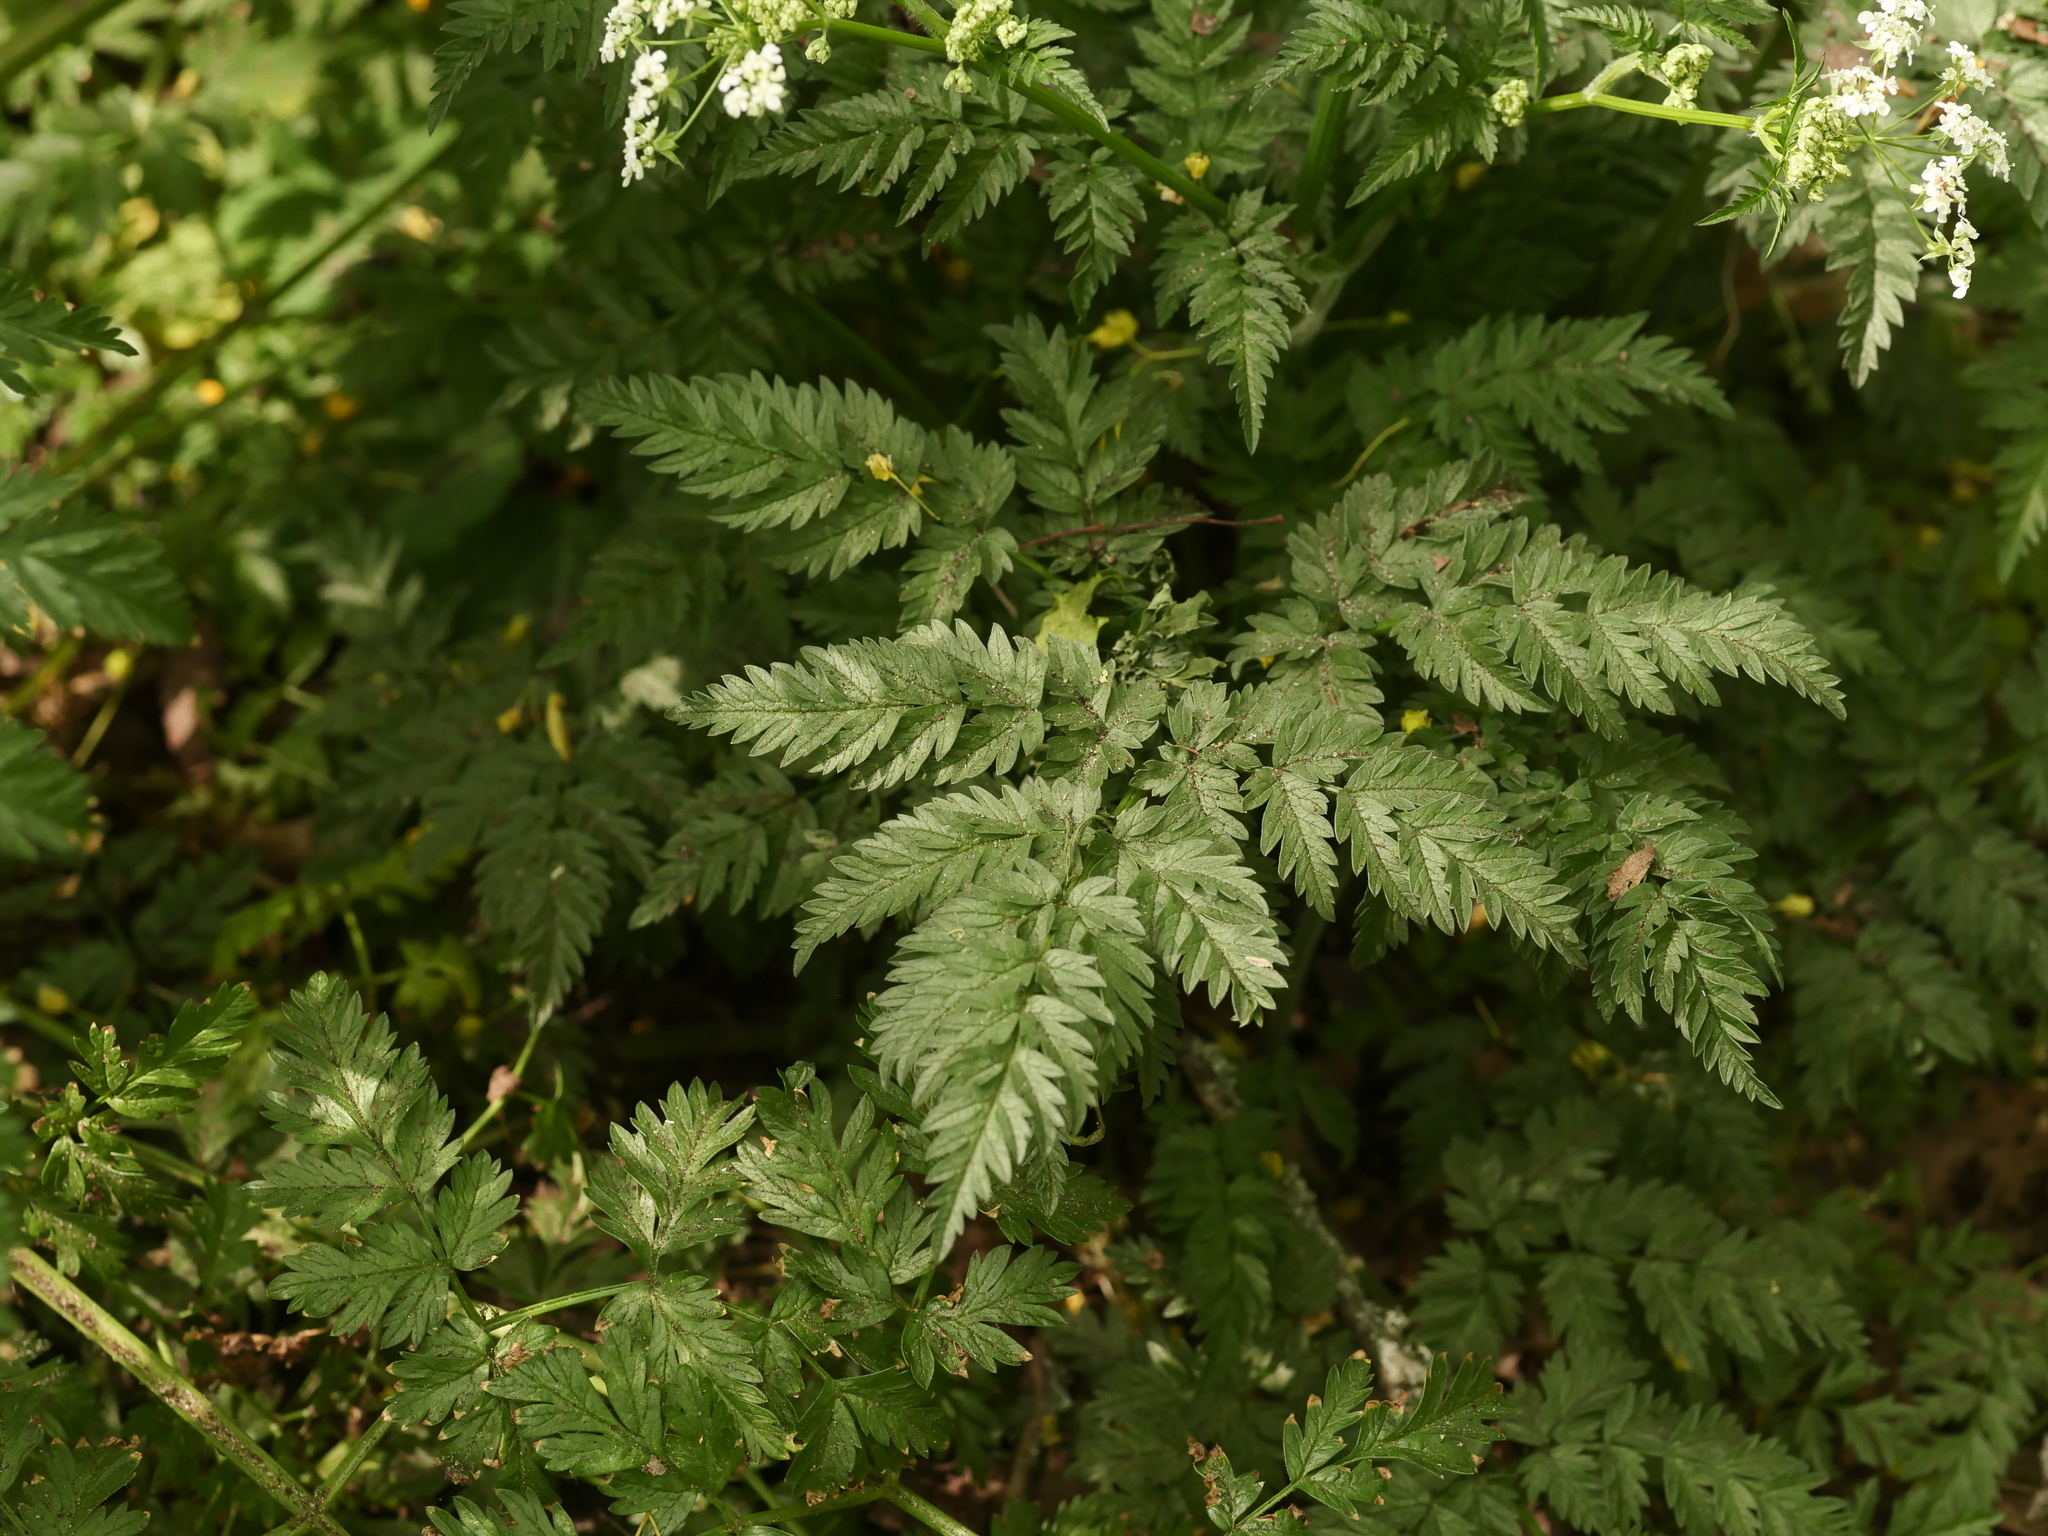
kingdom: Plantae
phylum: Tracheophyta
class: Magnoliopsida
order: Apiales
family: Apiaceae
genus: Anthriscus
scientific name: Anthriscus sylvestris
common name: Cow parsley
